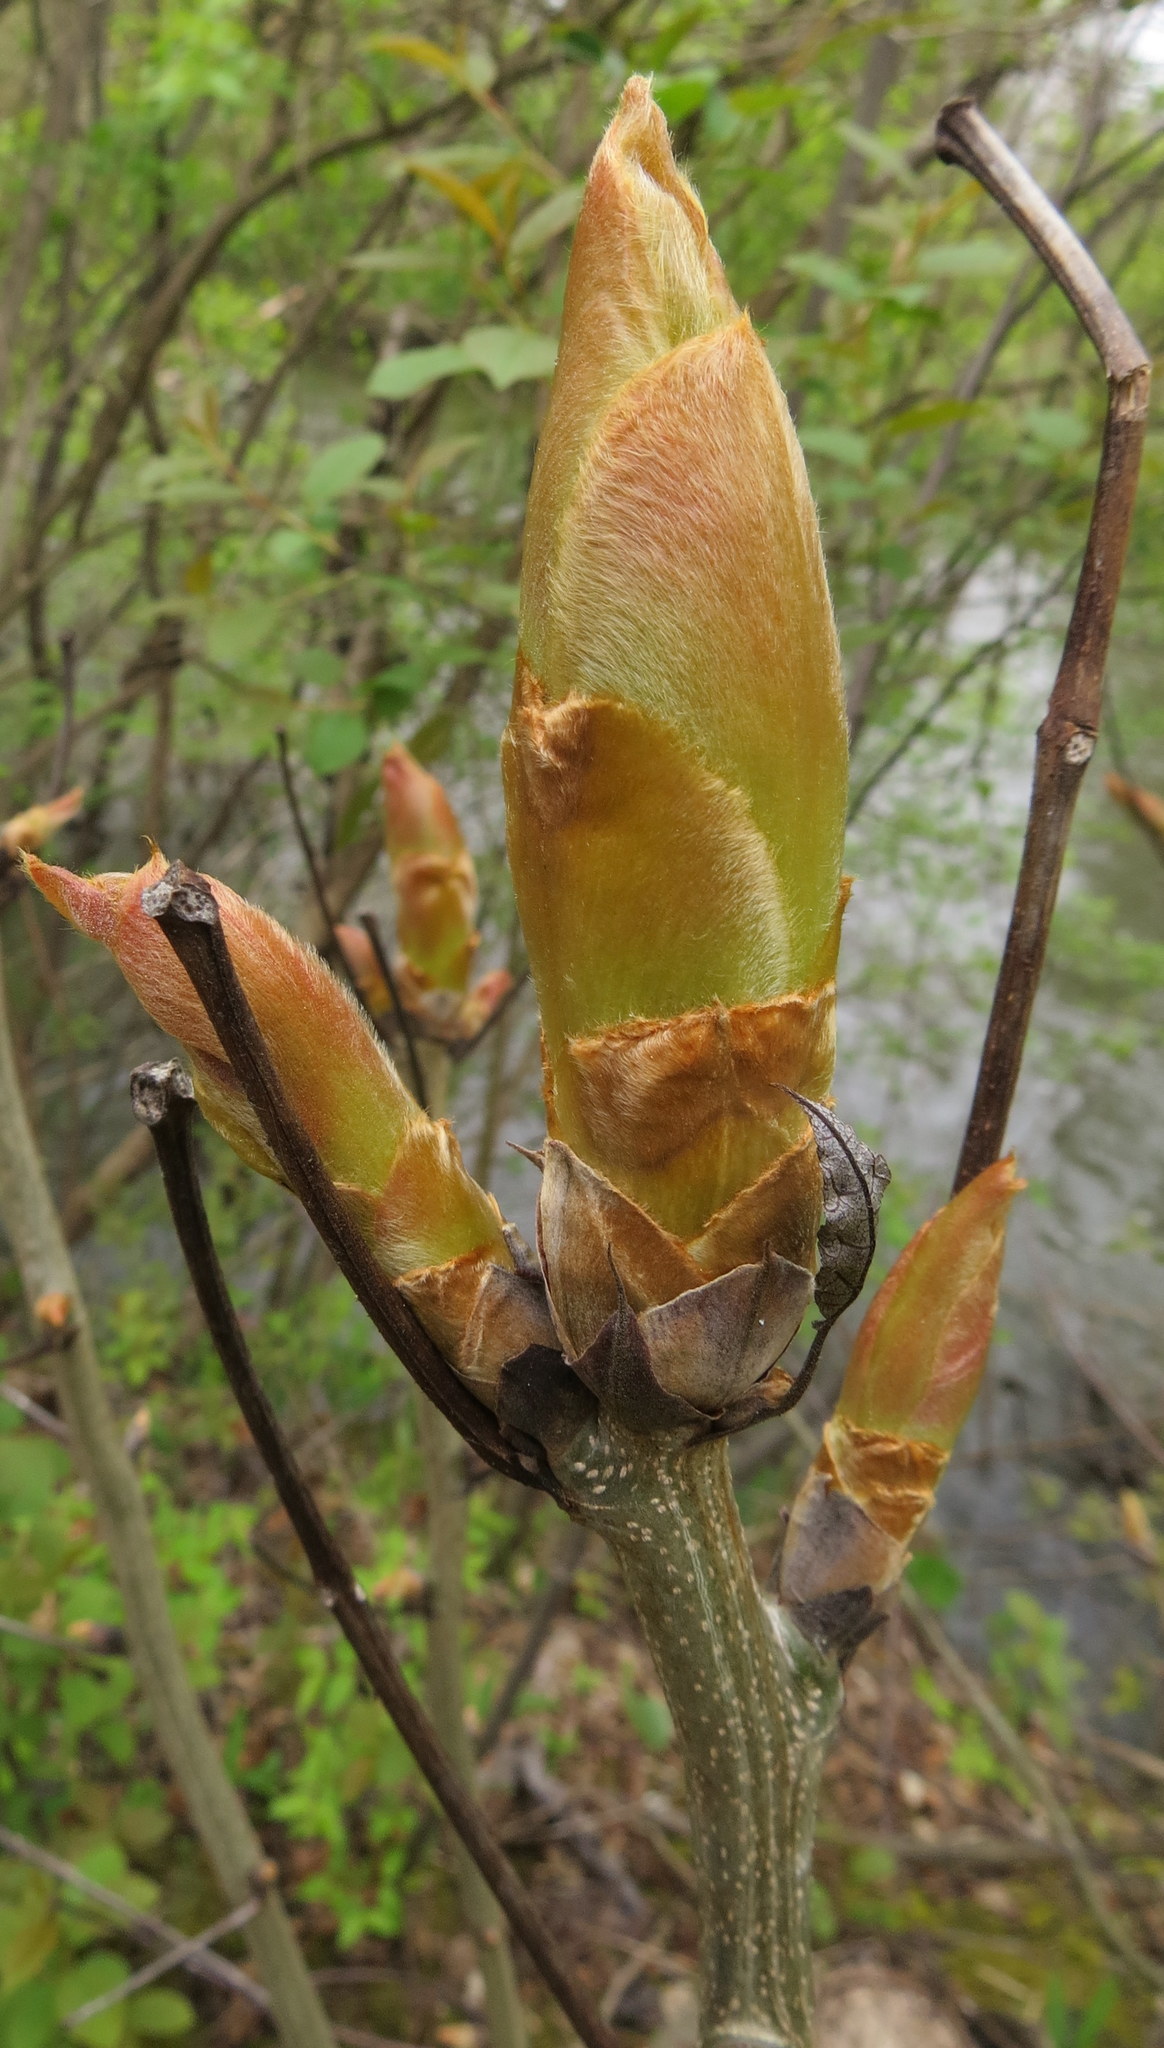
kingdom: Plantae
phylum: Tracheophyta
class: Magnoliopsida
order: Fagales
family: Juglandaceae
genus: Carya
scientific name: Carya
